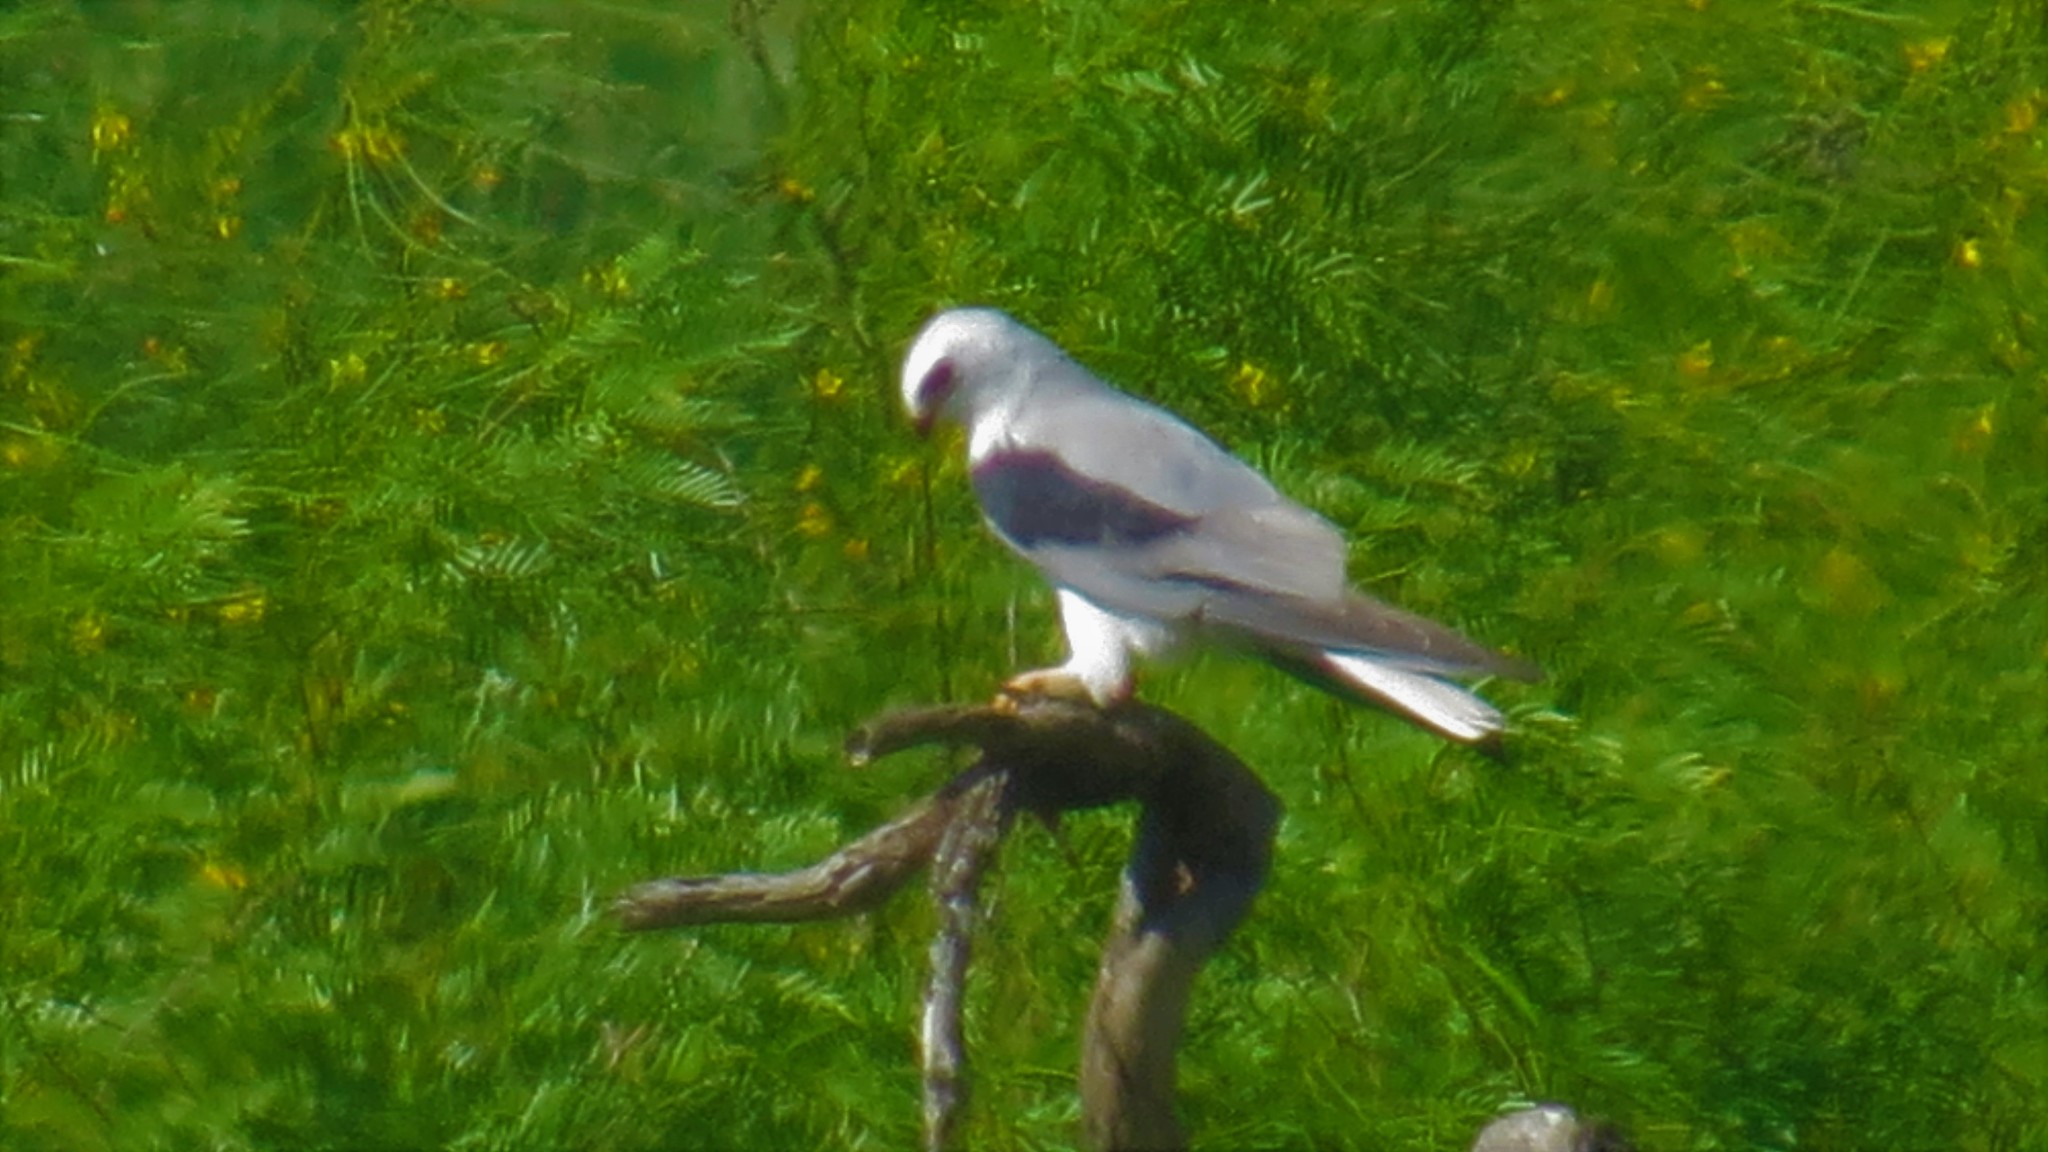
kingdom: Animalia
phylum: Chordata
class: Aves
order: Accipitriformes
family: Accipitridae
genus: Elanus
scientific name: Elanus leucurus
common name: White-tailed kite
